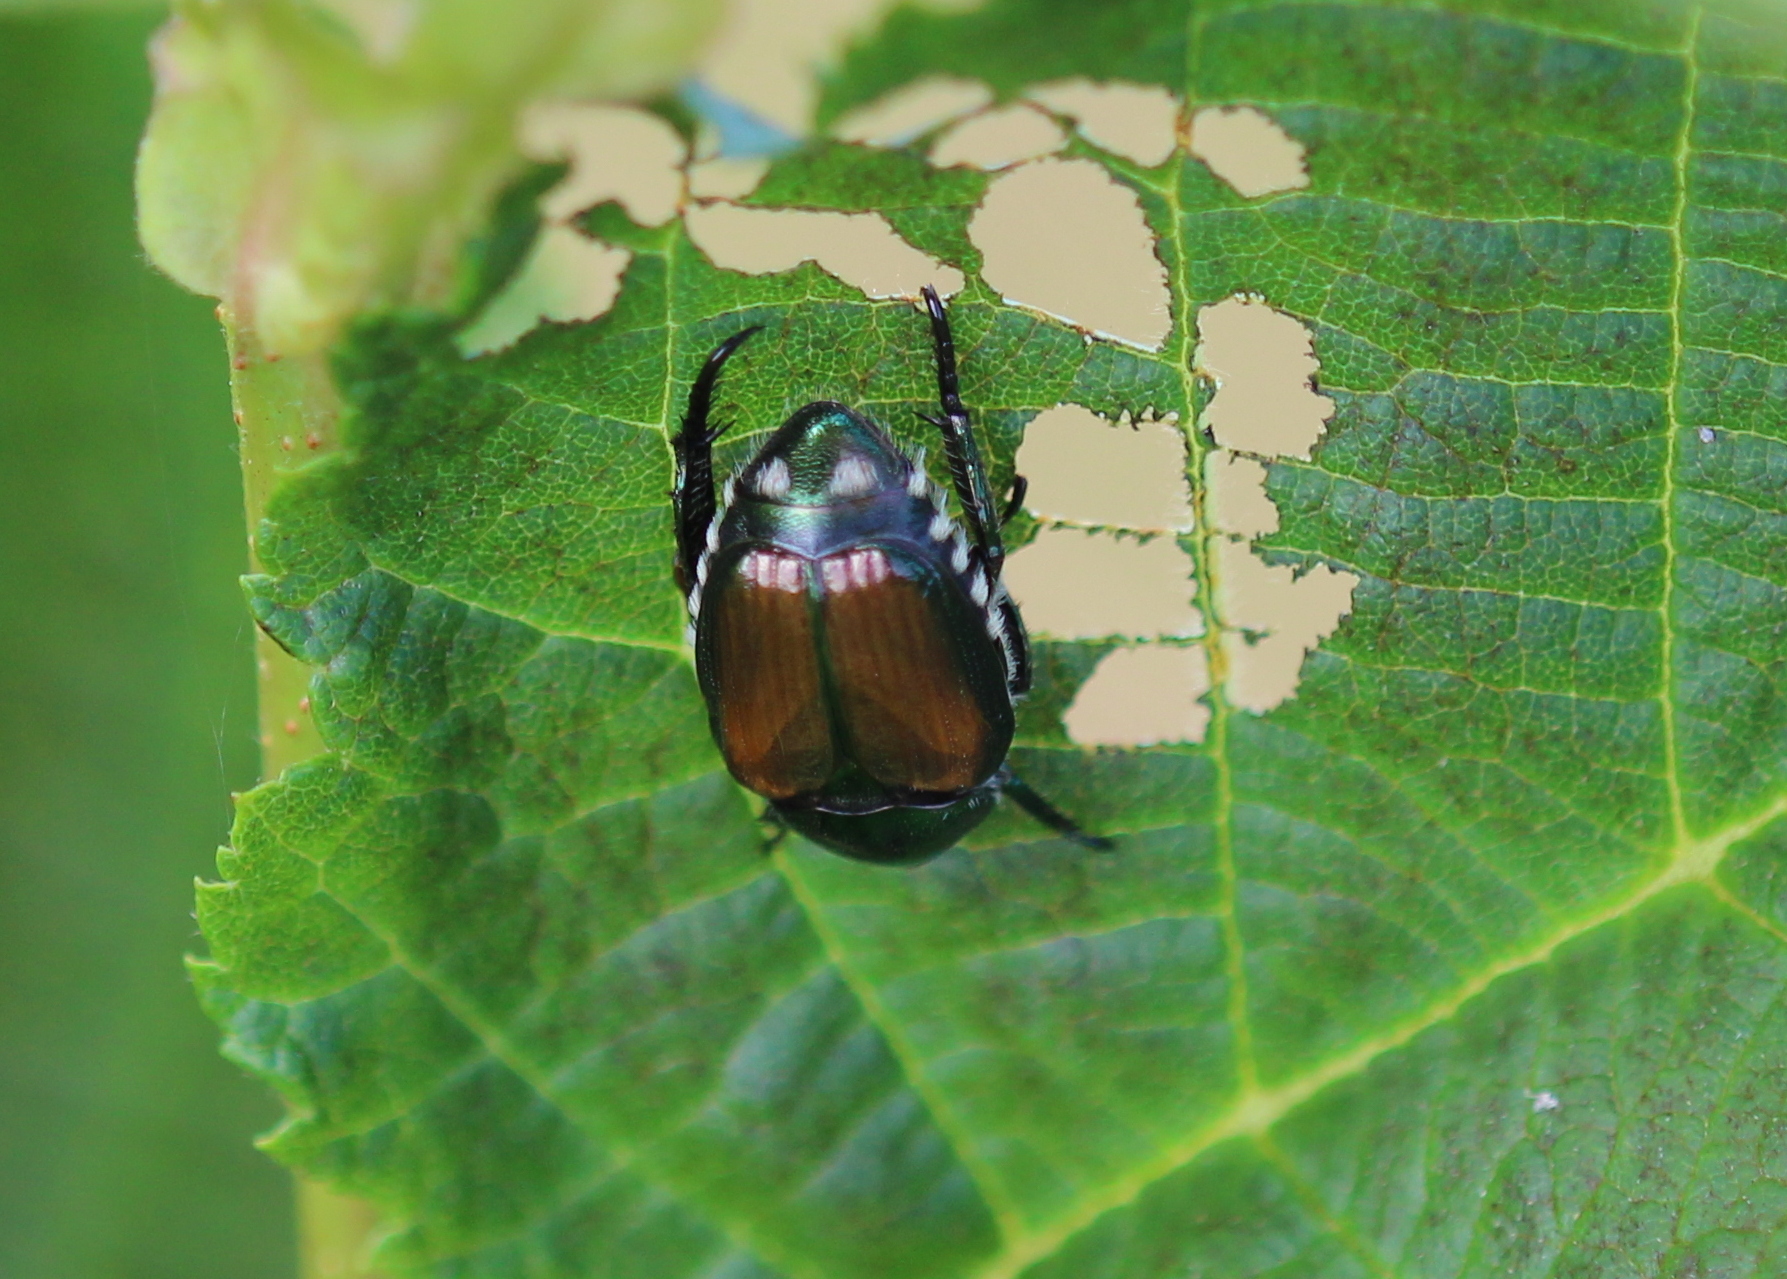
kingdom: Animalia
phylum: Arthropoda
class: Insecta
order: Coleoptera
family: Scarabaeidae
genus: Popillia
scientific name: Popillia japonica
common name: Japanese beetle
